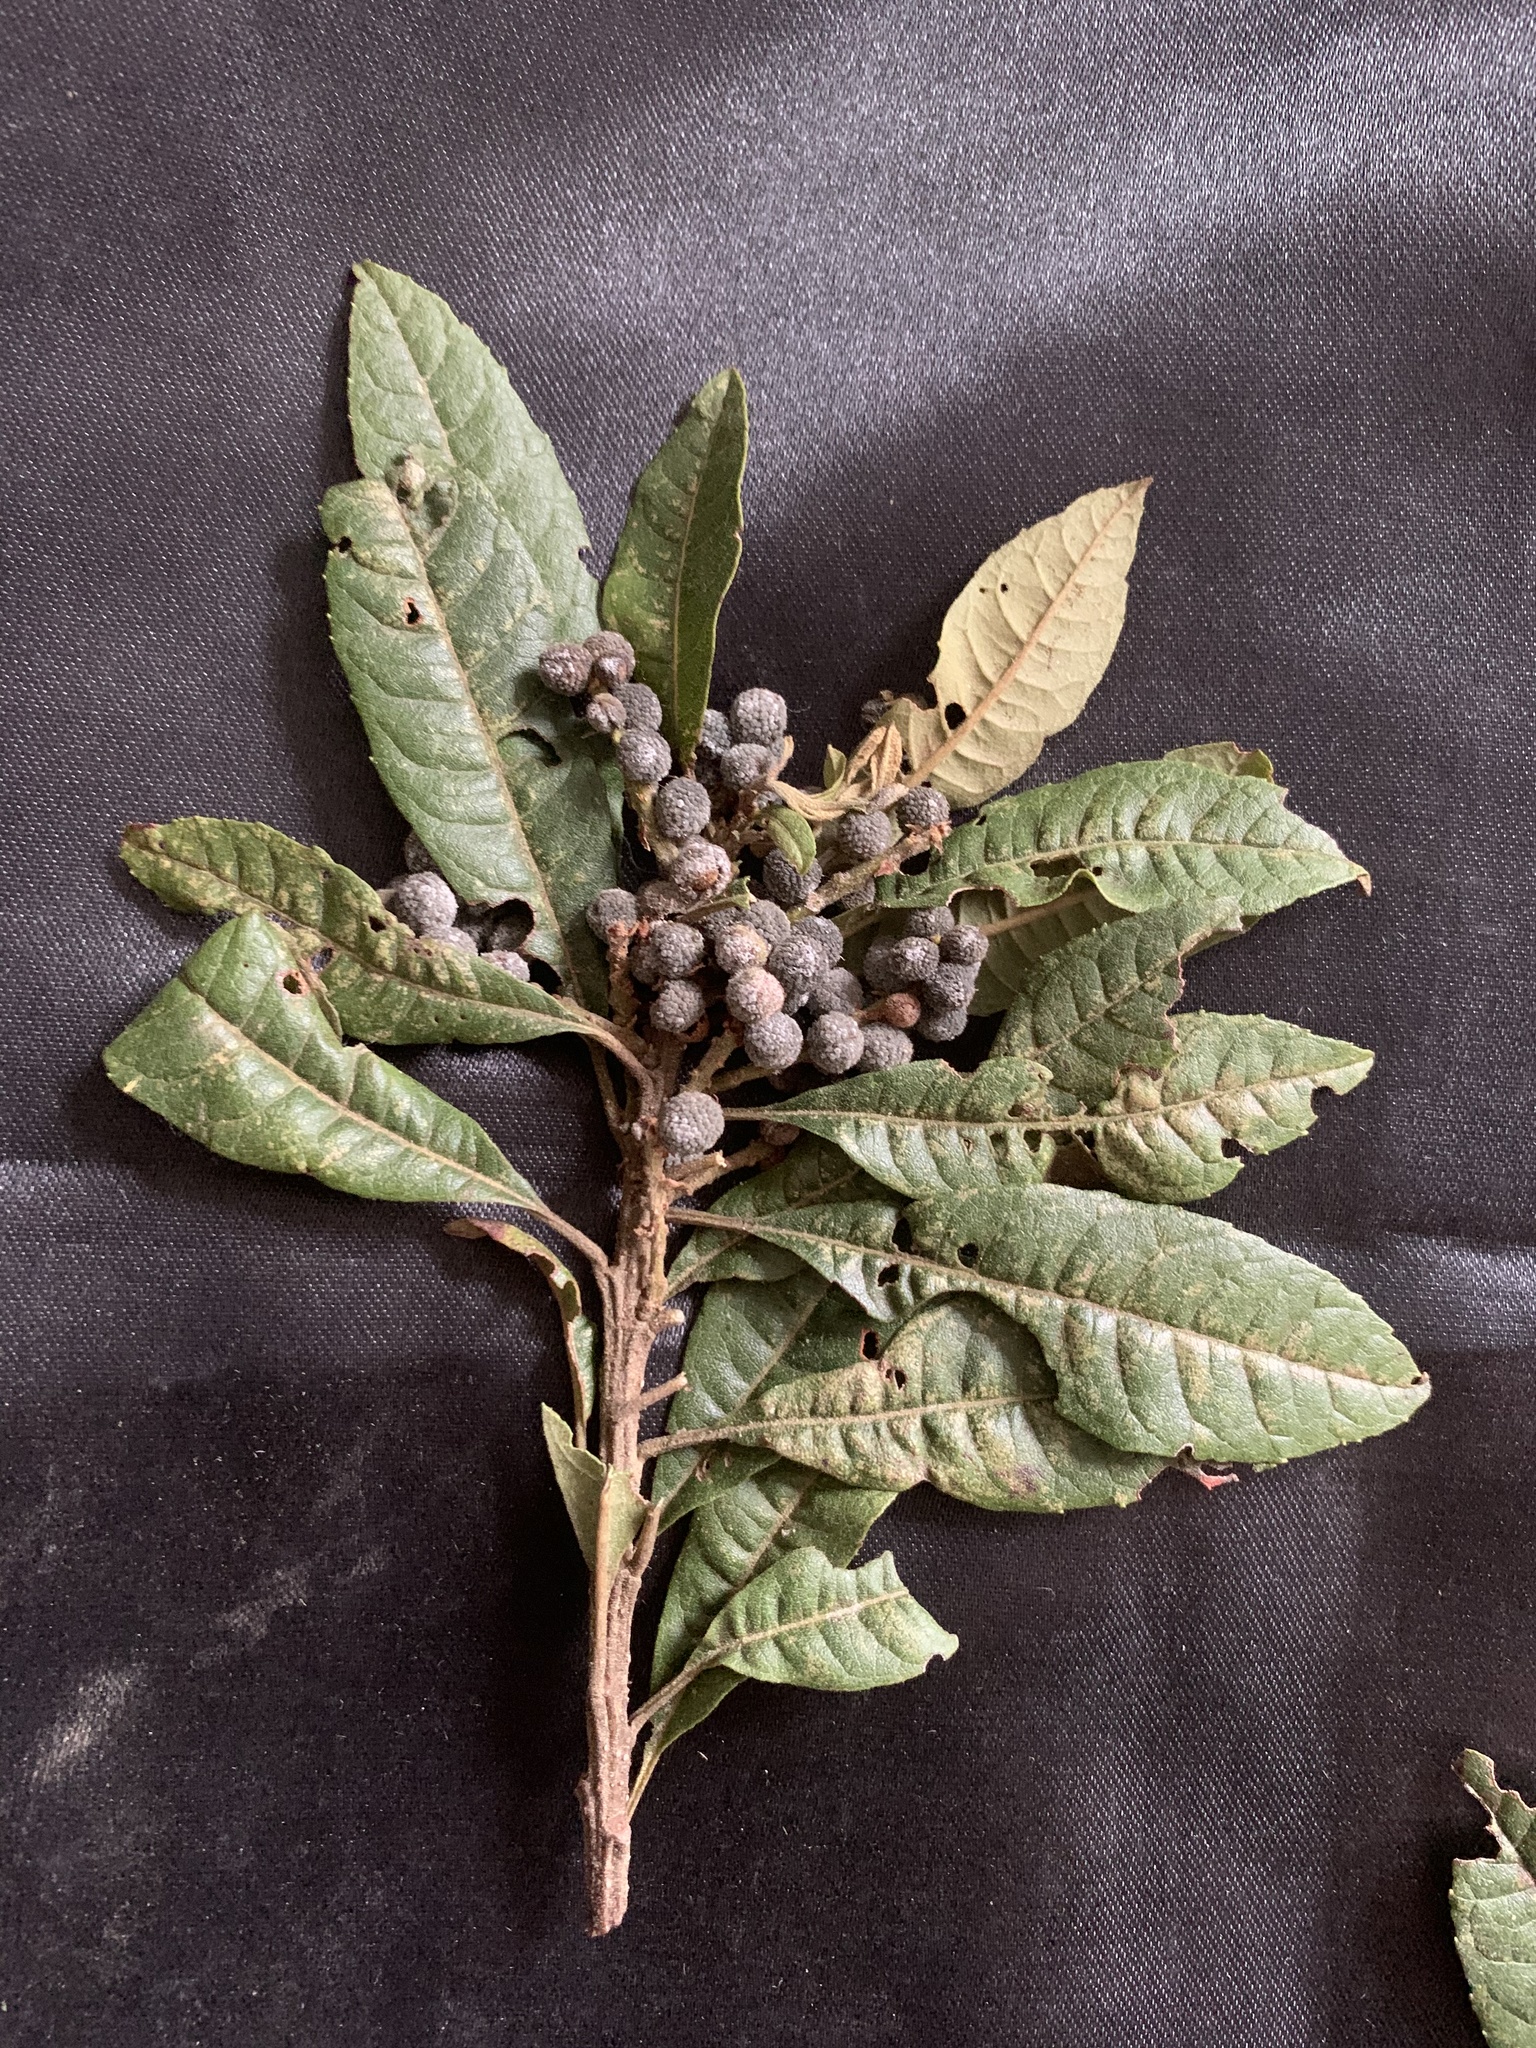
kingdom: Plantae
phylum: Tracheophyta
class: Magnoliopsida
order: Fagales
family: Myricaceae
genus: Morella
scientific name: Morella pubescens
